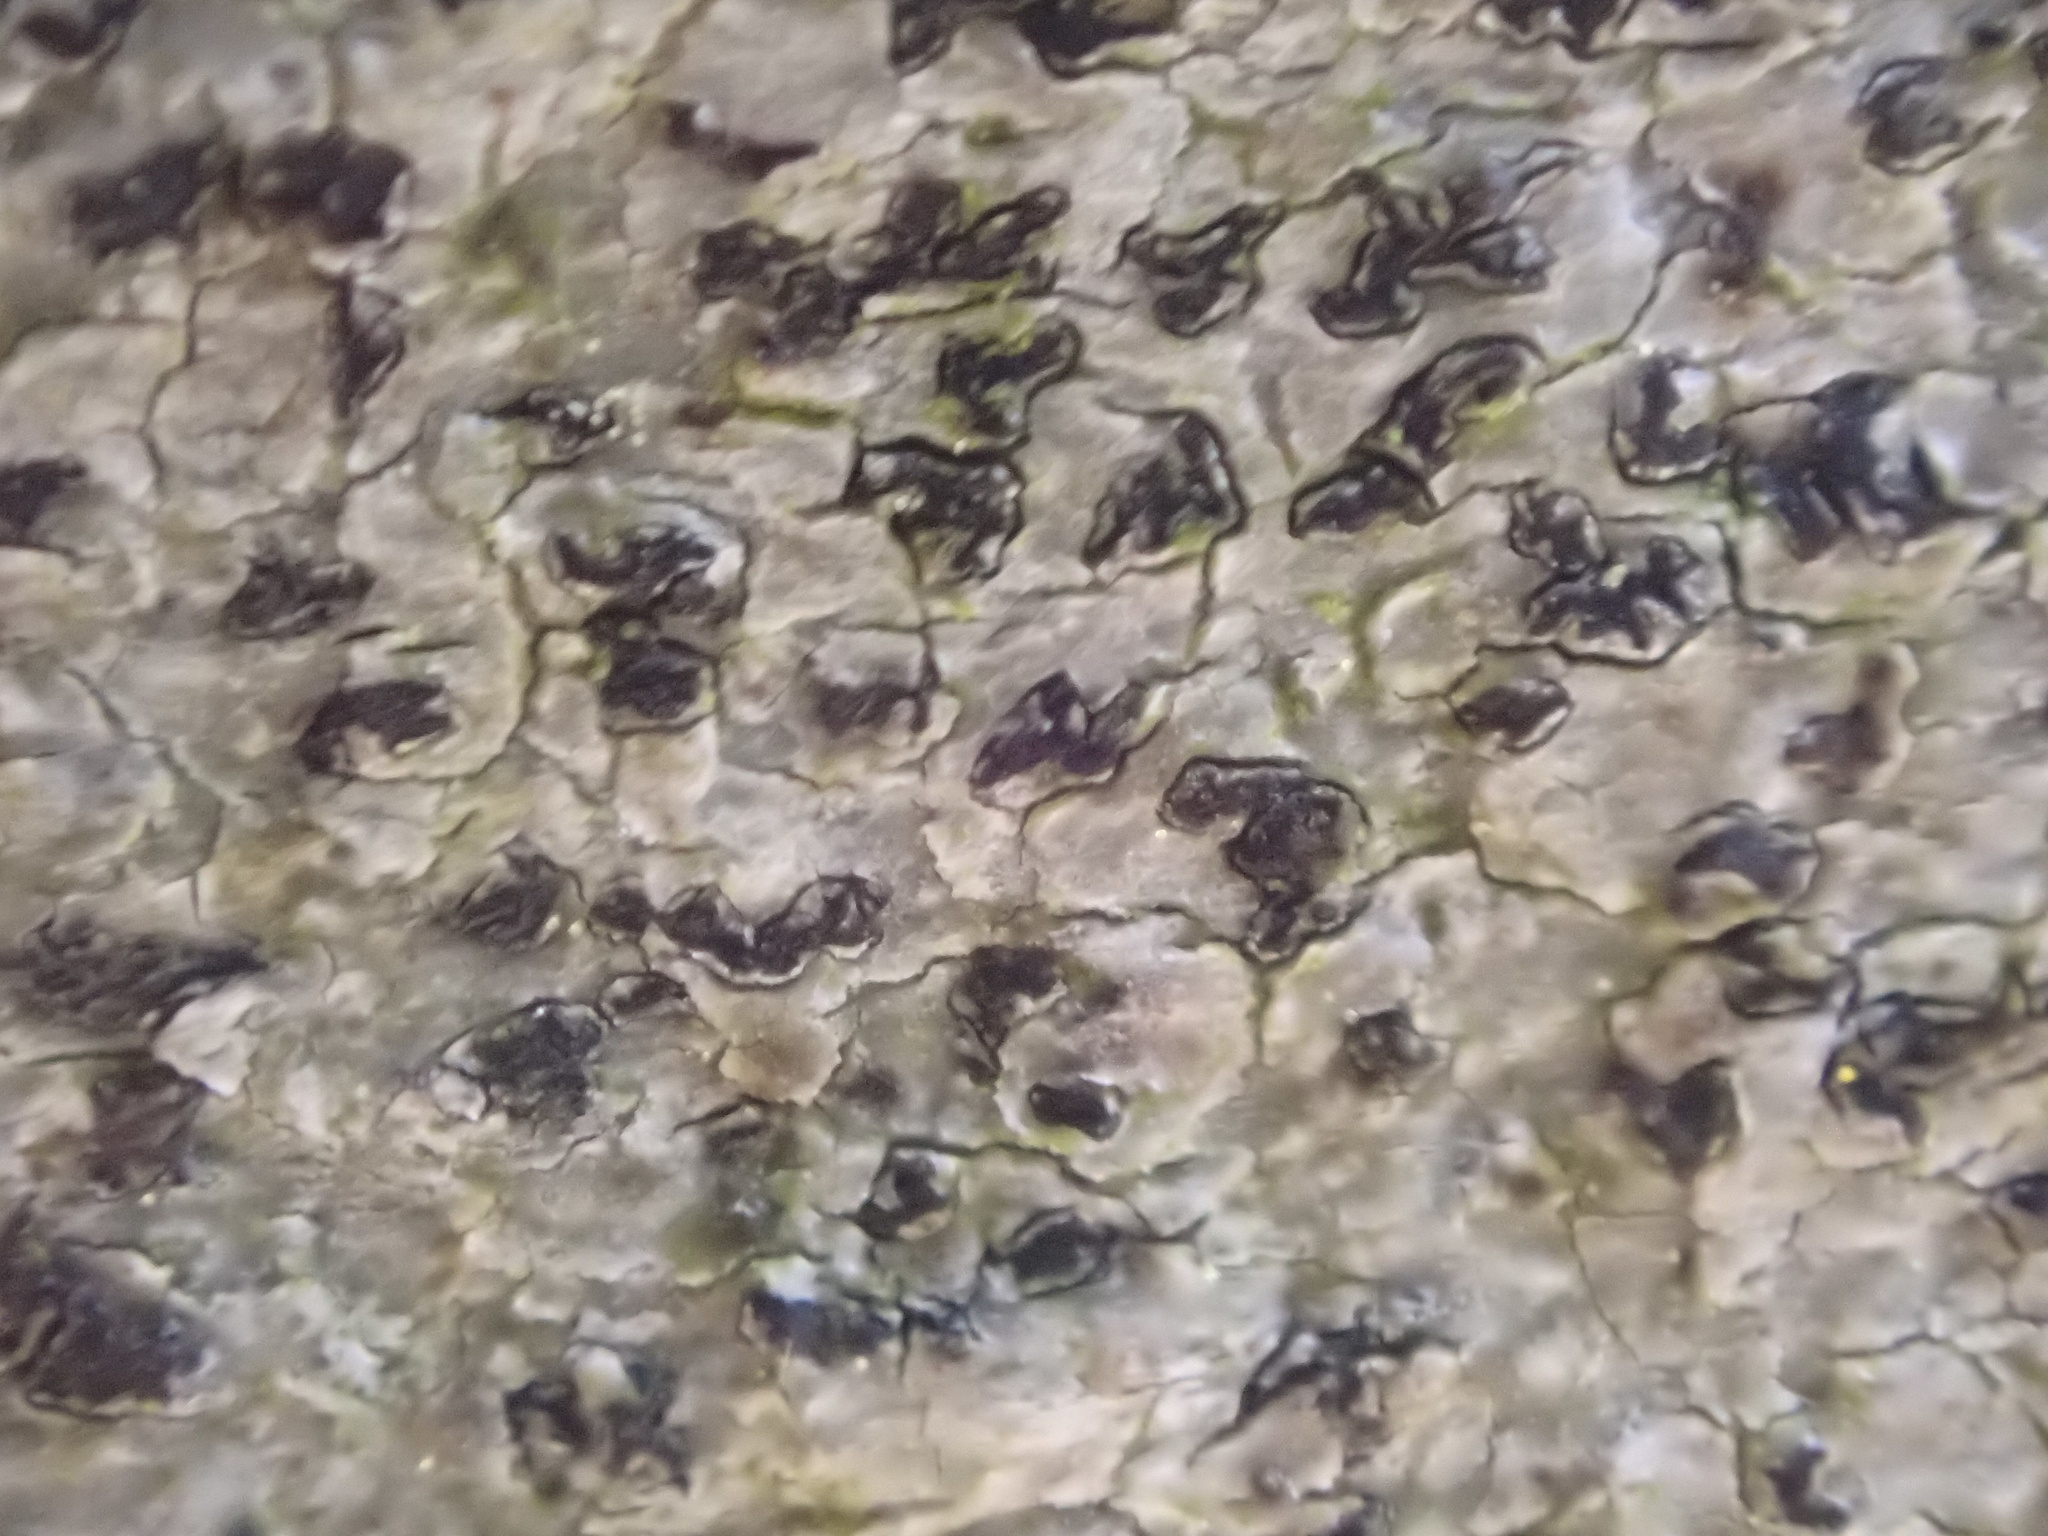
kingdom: Fungi
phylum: Ascomycota
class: Arthoniomycetes
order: Arthoniales
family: Arthoniaceae
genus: Arthonia
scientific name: Arthonia radiata
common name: Asterisk lichen
